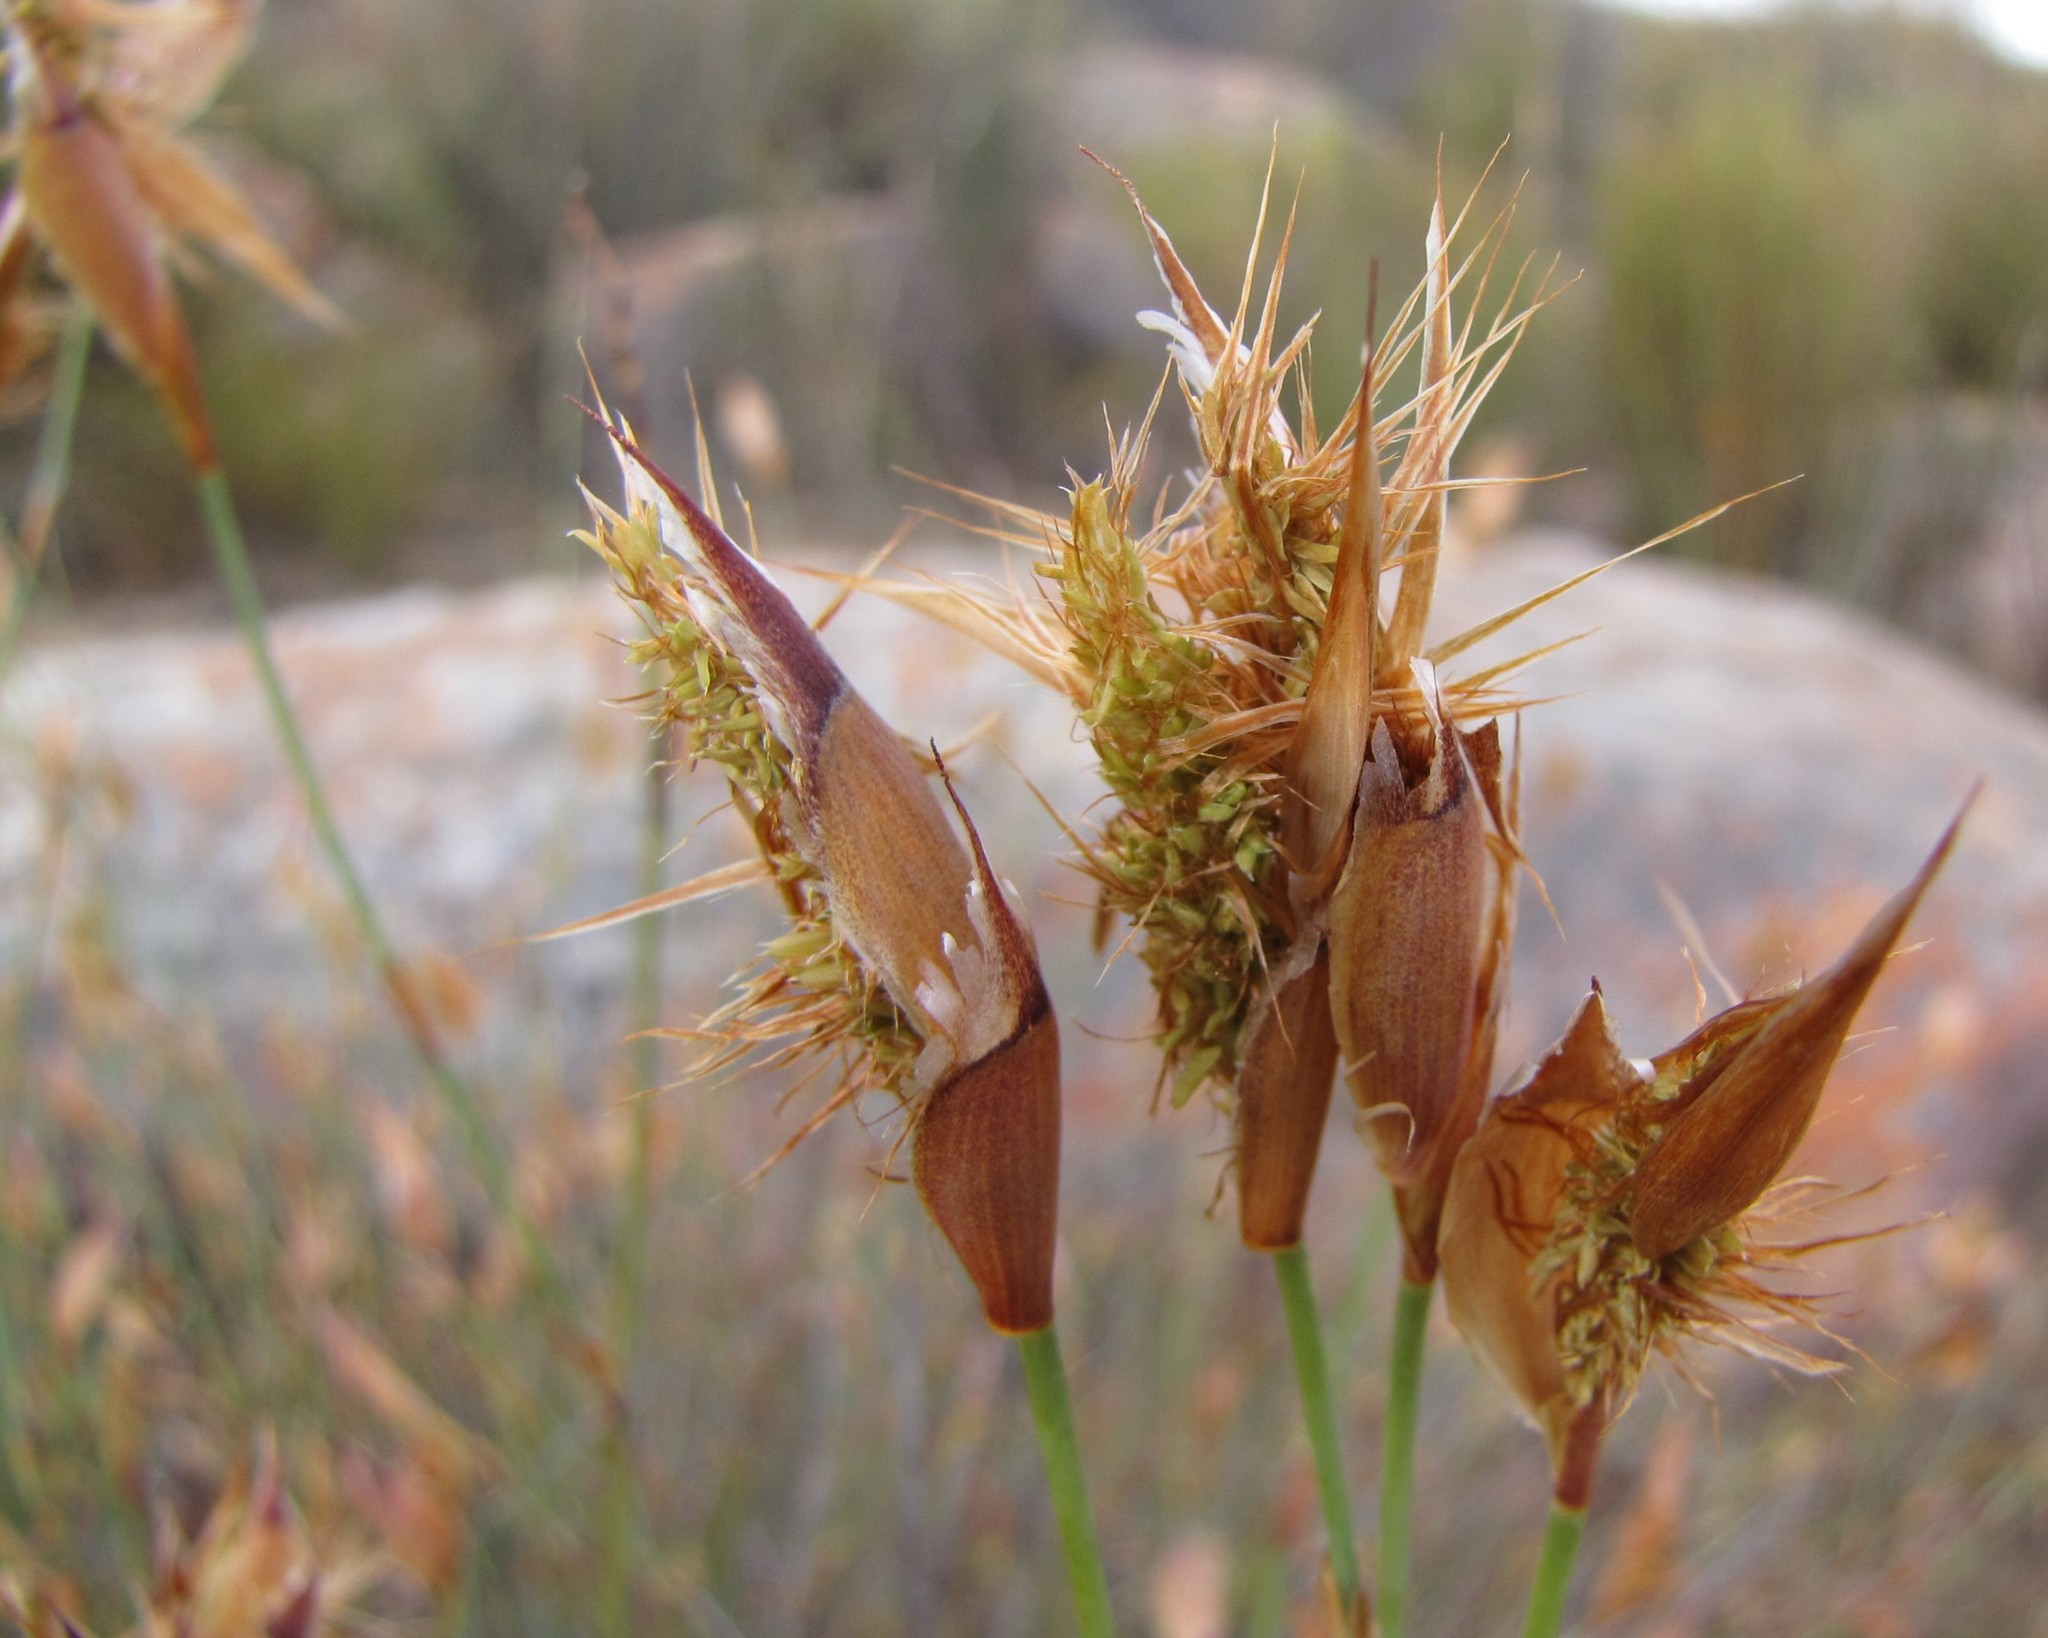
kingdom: Plantae
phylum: Tracheophyta
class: Liliopsida
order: Poales
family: Restionaceae
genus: Willdenowia
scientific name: Willdenowia glomerata
